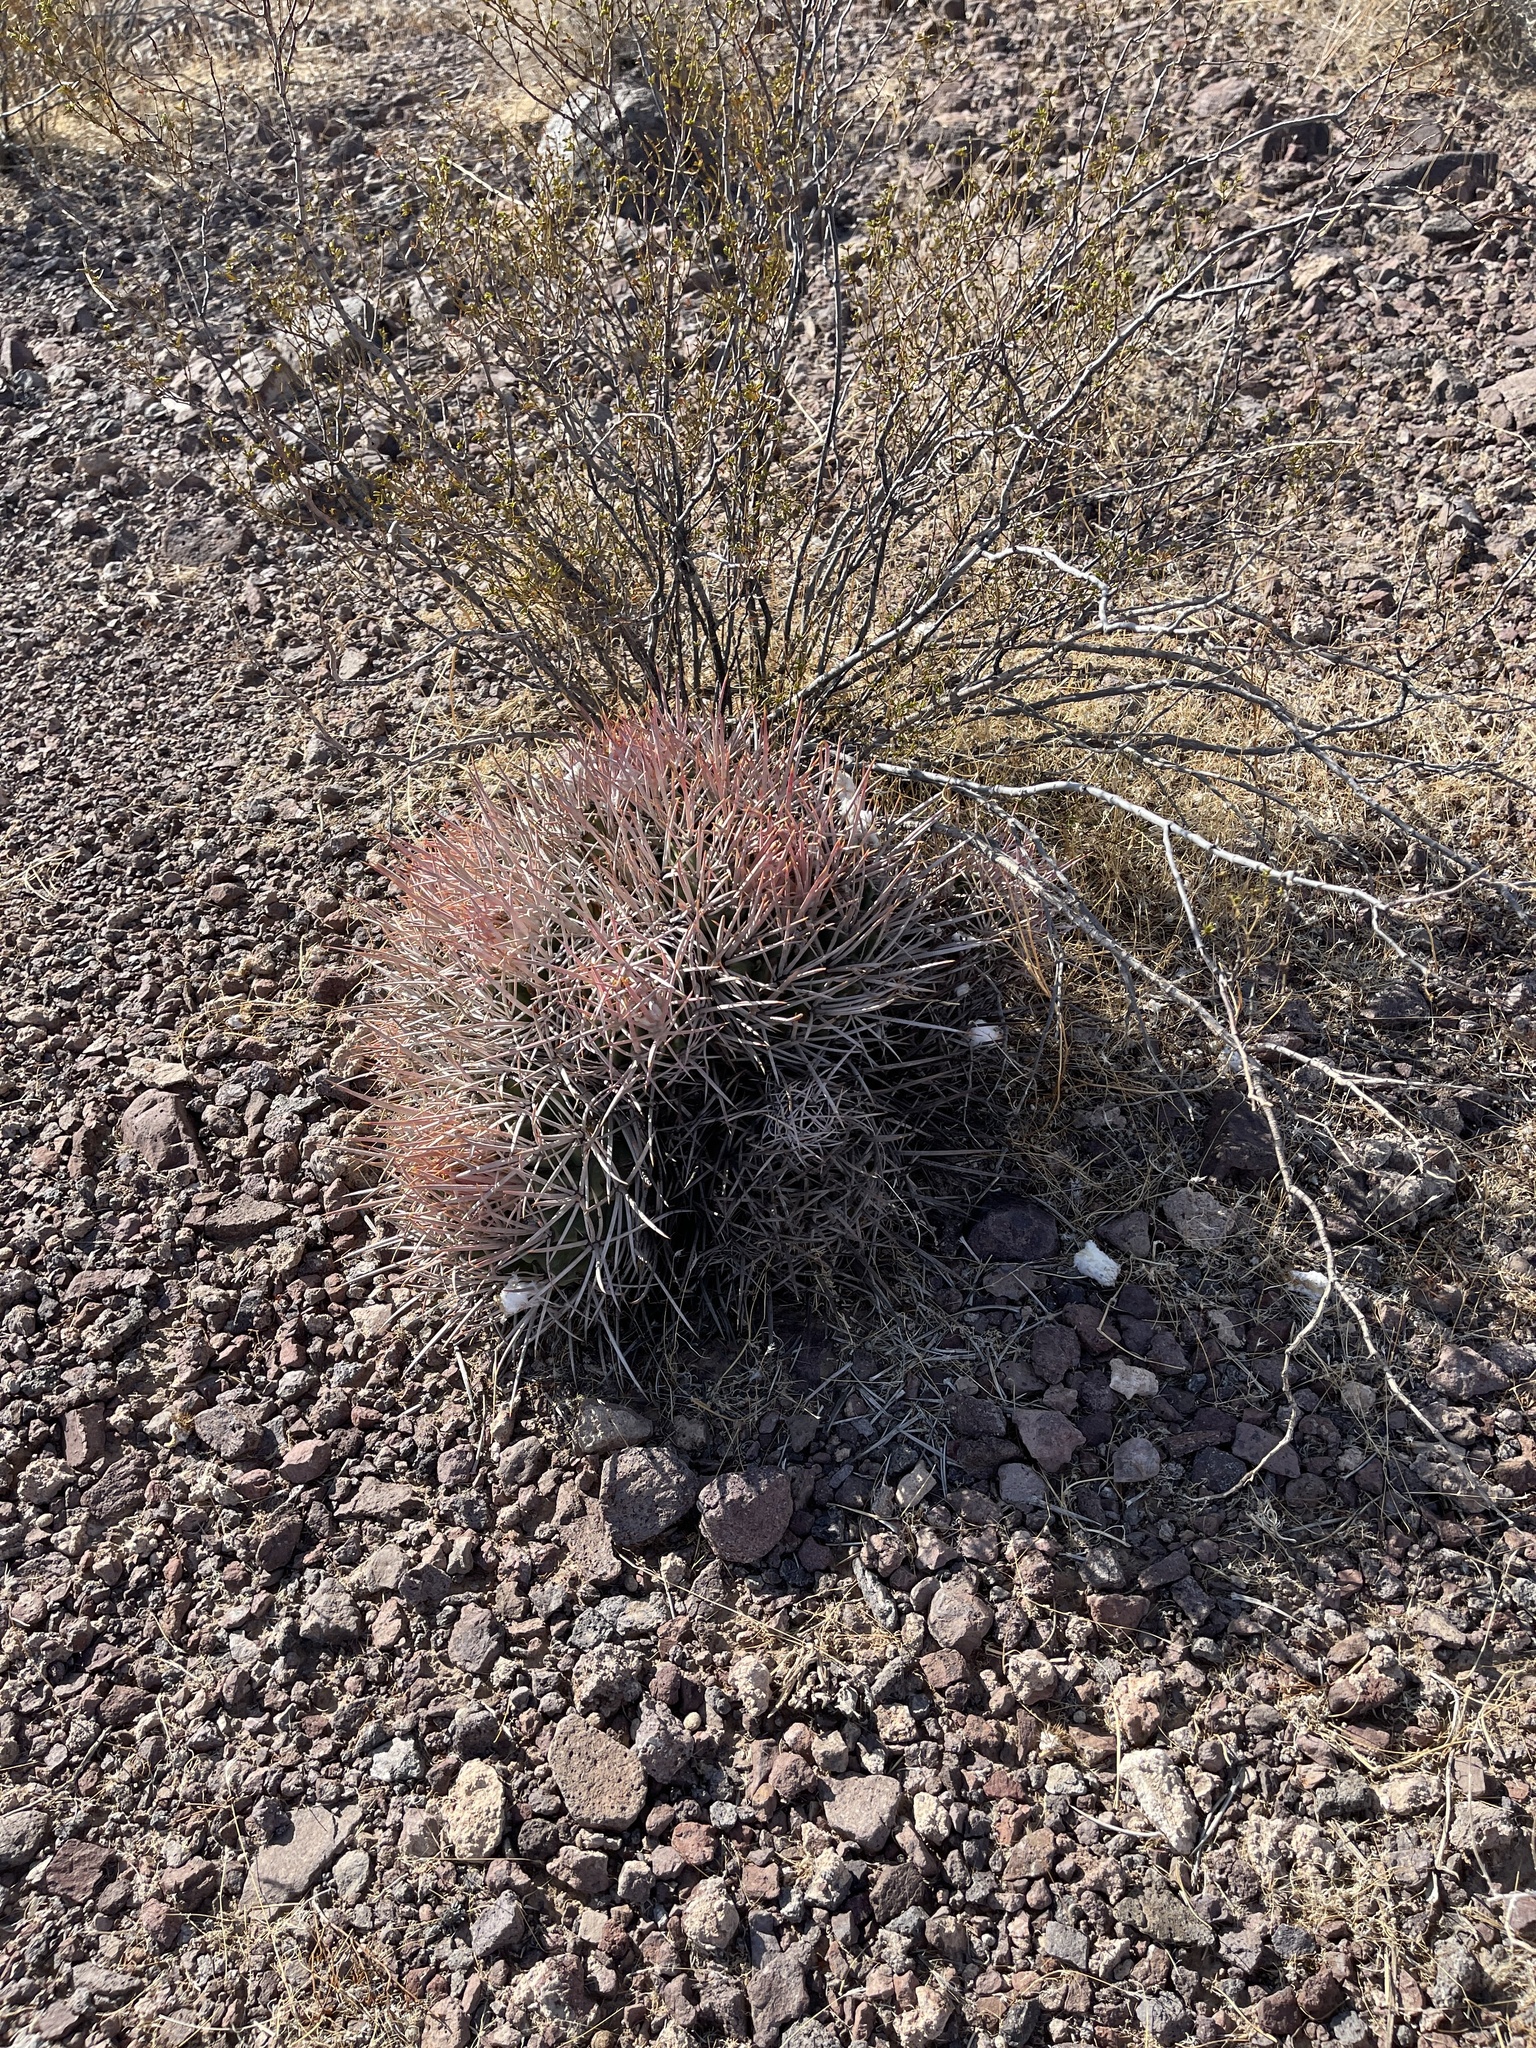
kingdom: Plantae
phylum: Tracheophyta
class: Magnoliopsida
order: Caryophyllales
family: Cactaceae
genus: Echinocactus
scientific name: Echinocactus polycephalus
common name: Cottontop cactus
